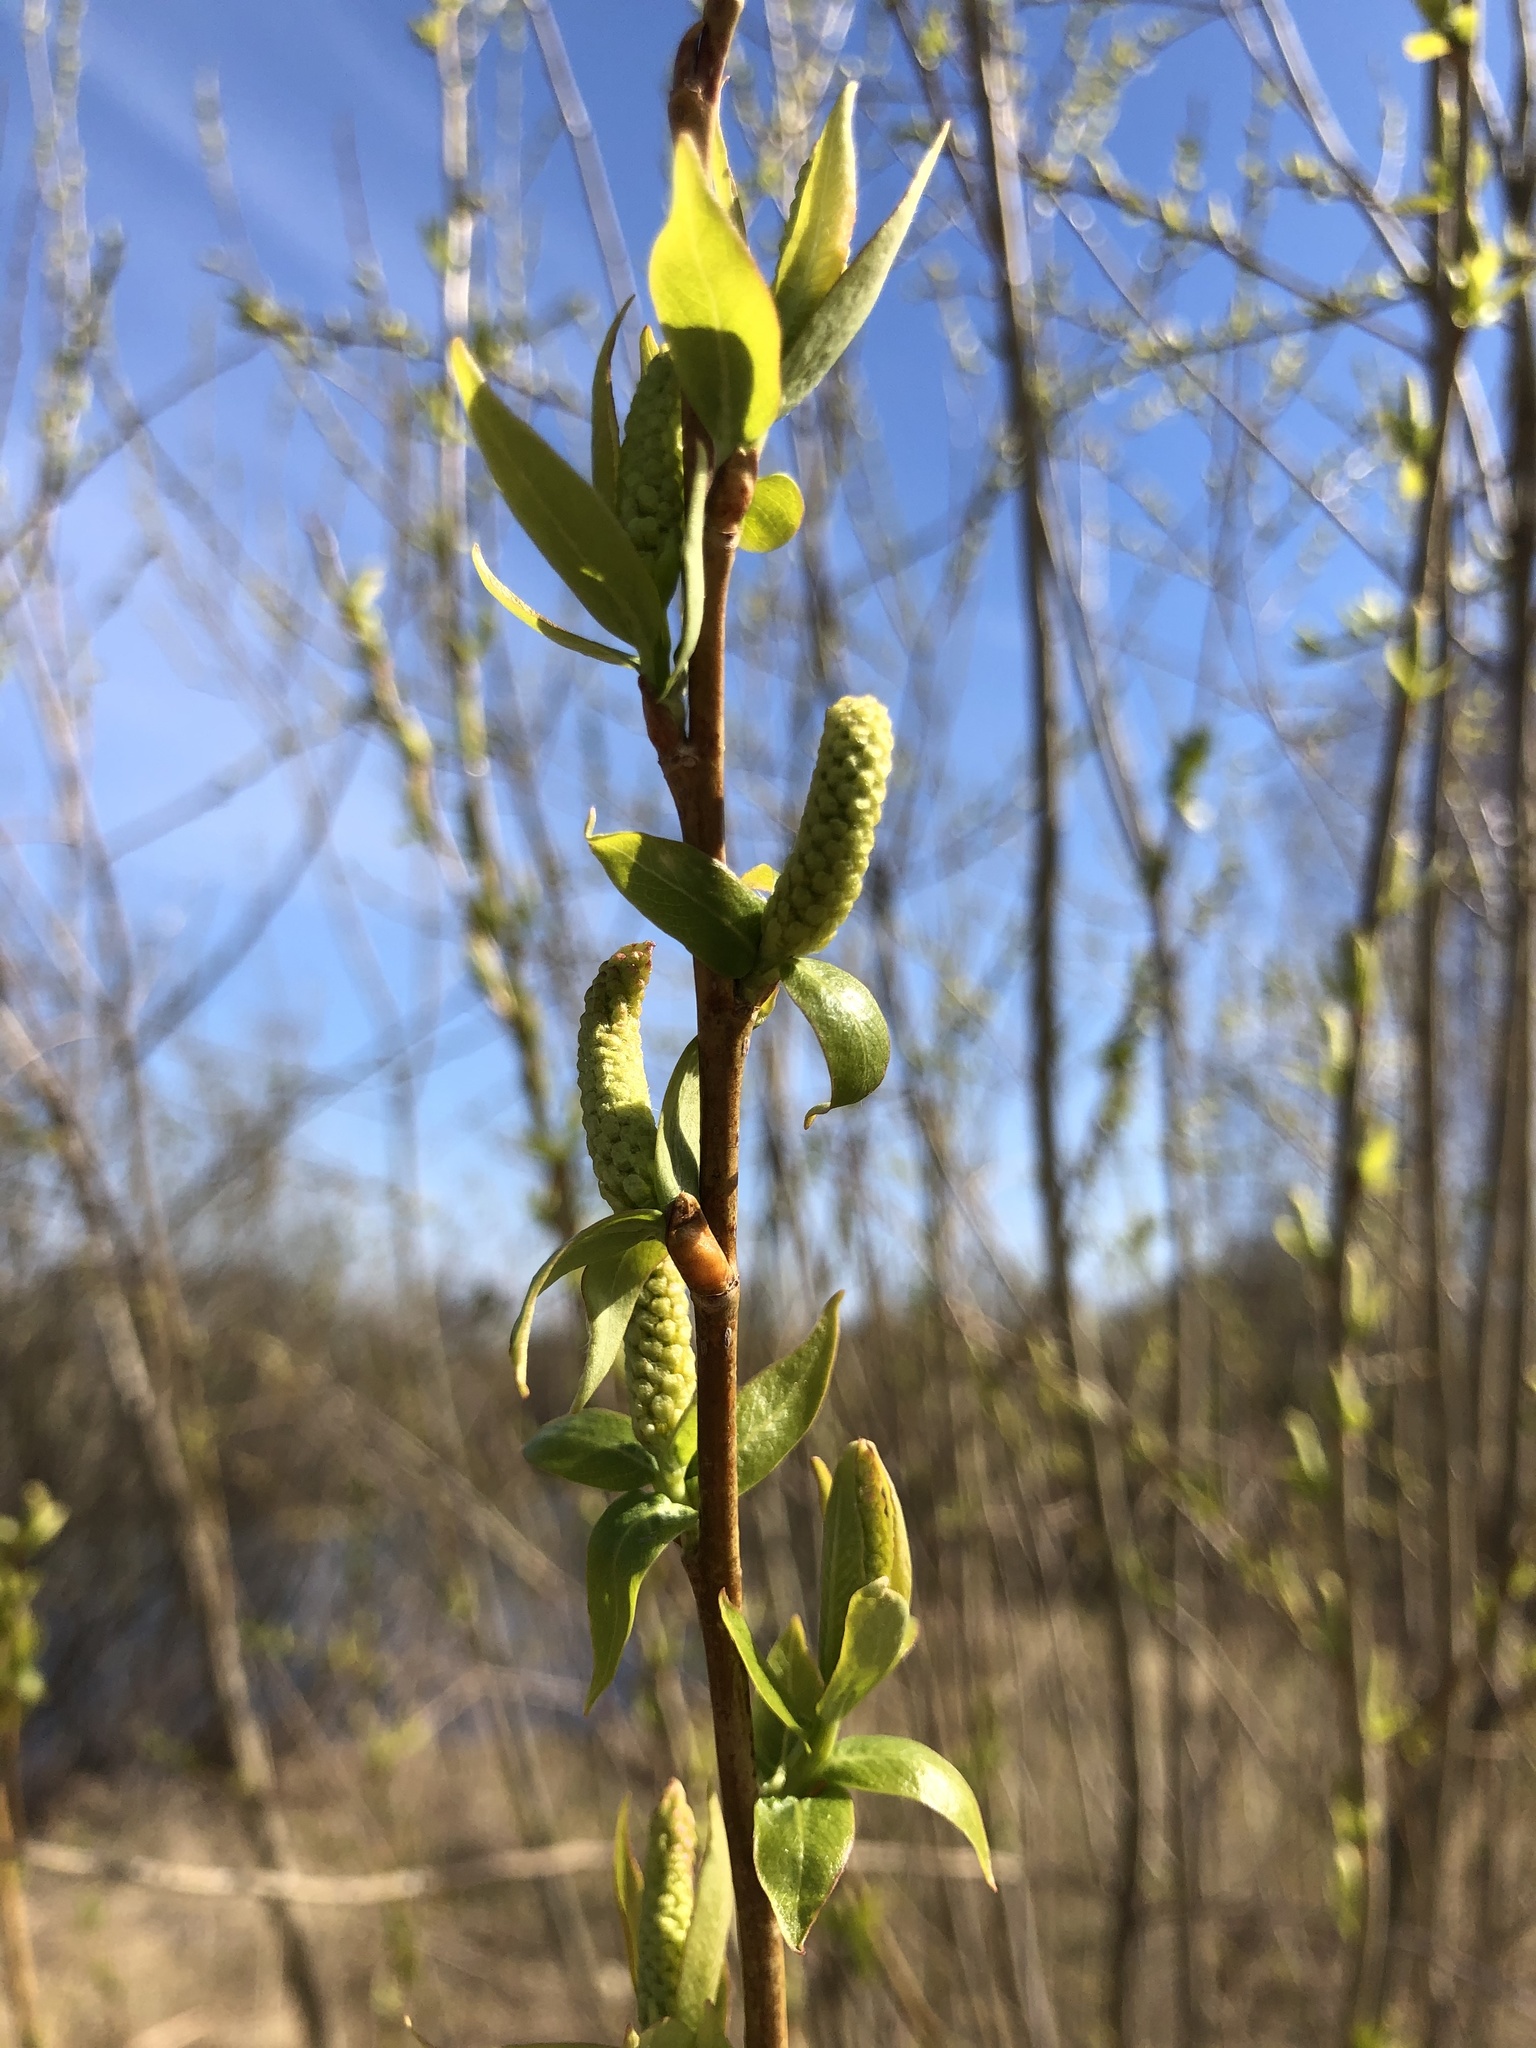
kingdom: Plantae
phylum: Tracheophyta
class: Magnoliopsida
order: Malpighiales
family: Salicaceae
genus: Salix
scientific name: Salix triandra
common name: Almond willow
